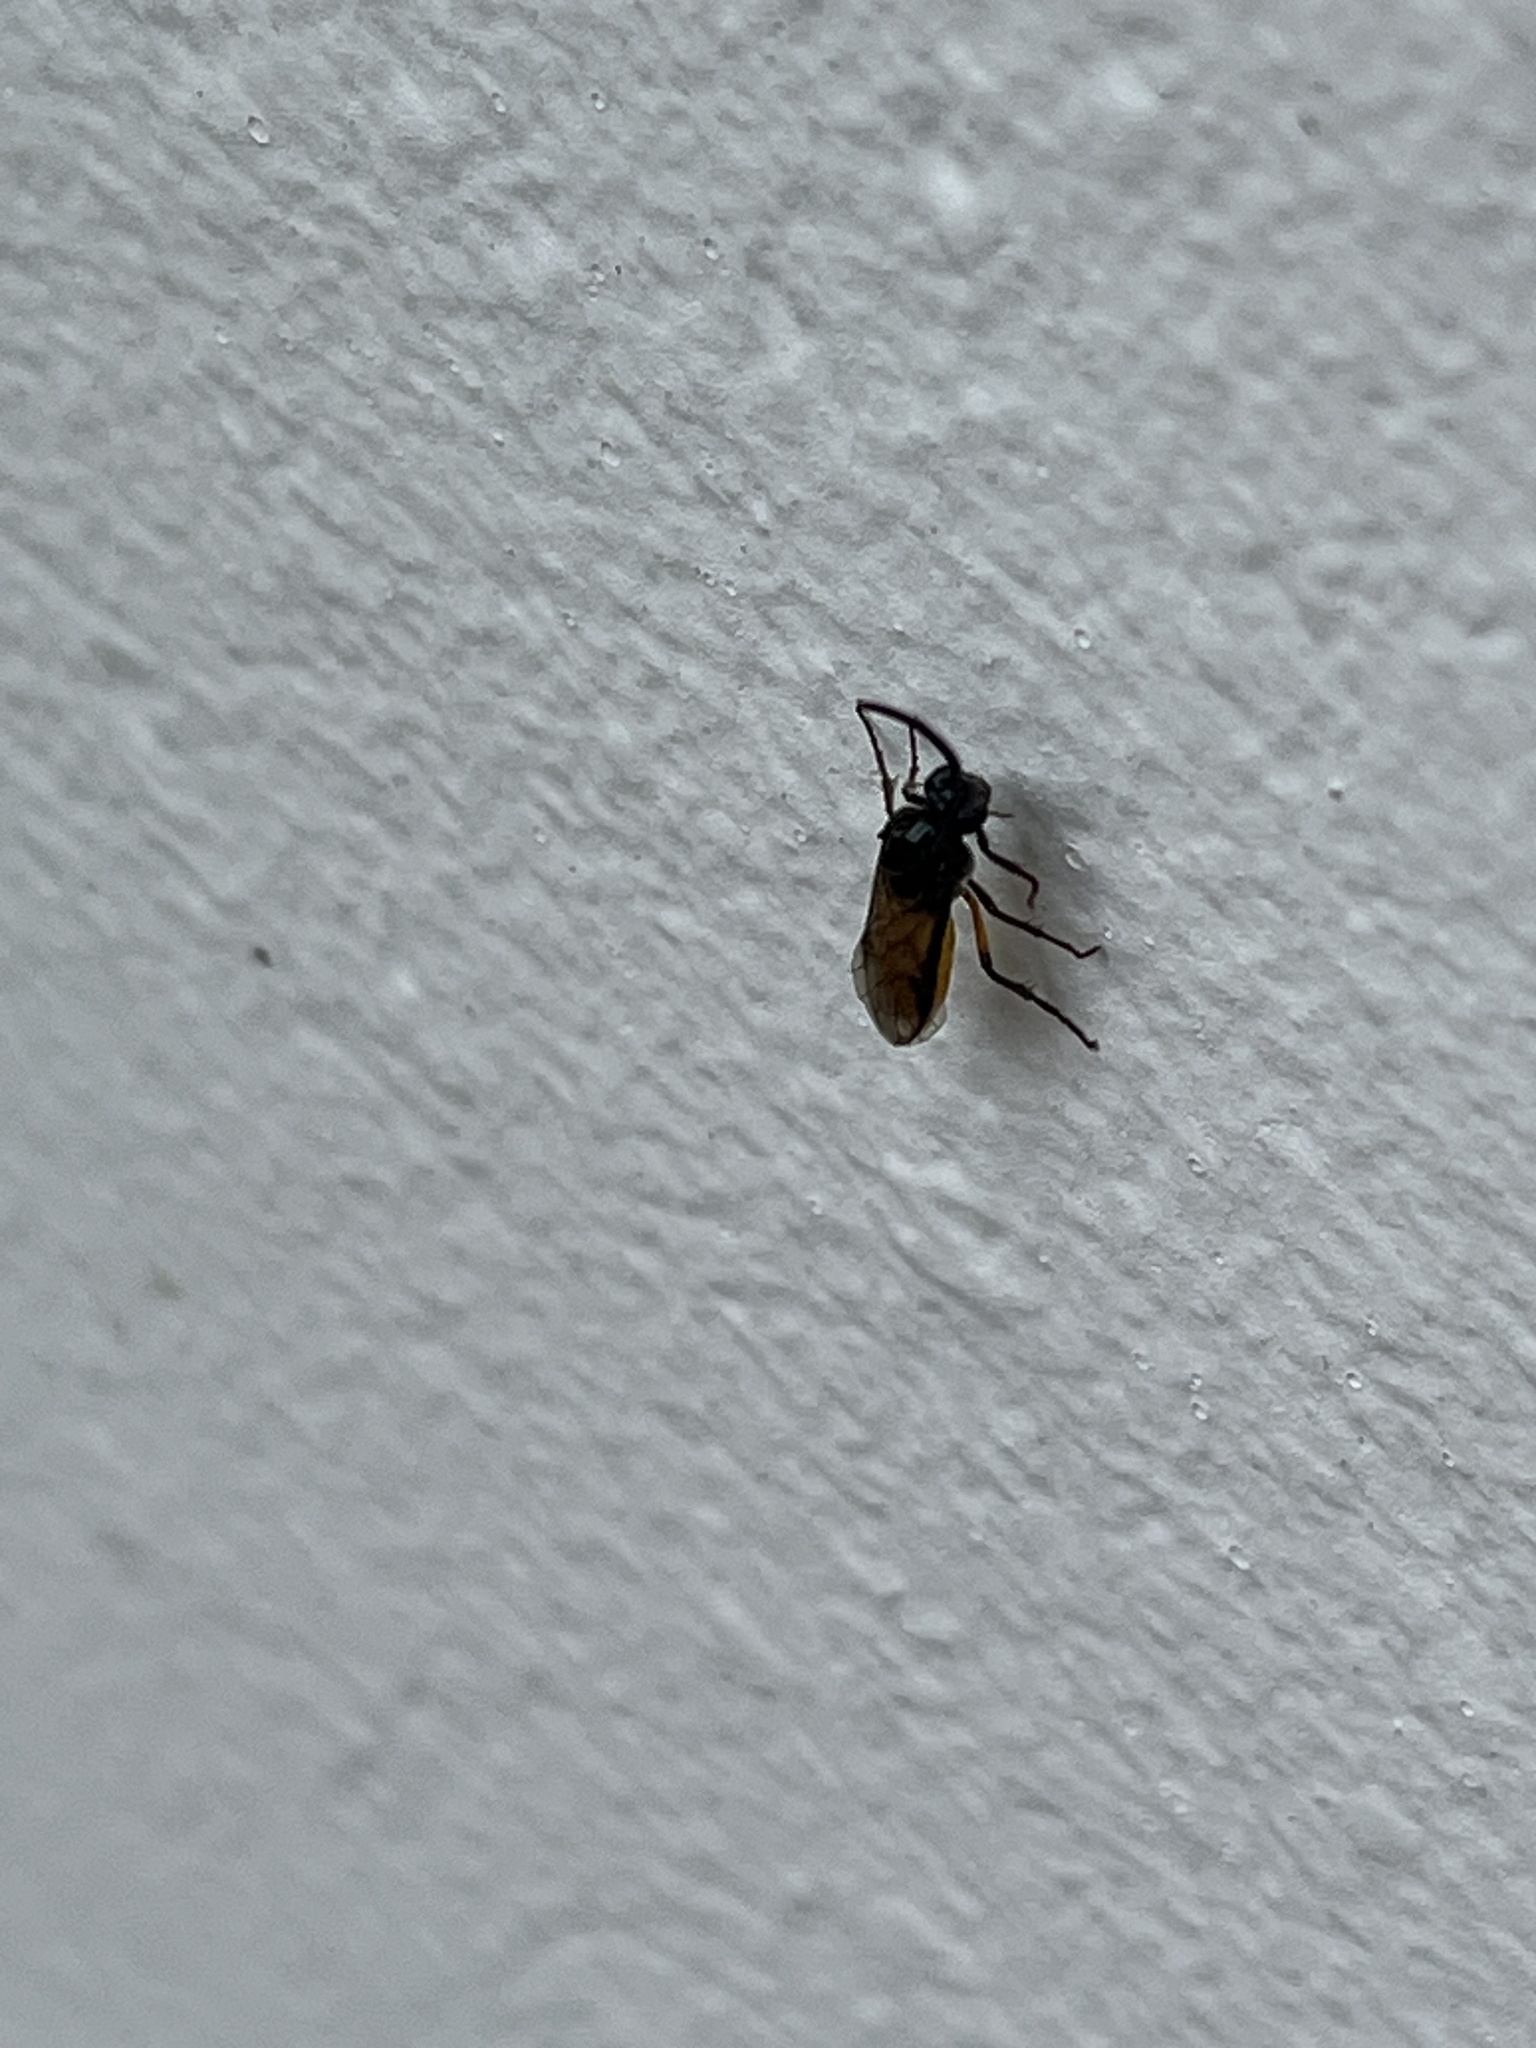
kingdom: Animalia
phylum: Arthropoda
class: Insecta
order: Hymenoptera
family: Argidae
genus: Arge
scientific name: Arge pagana
